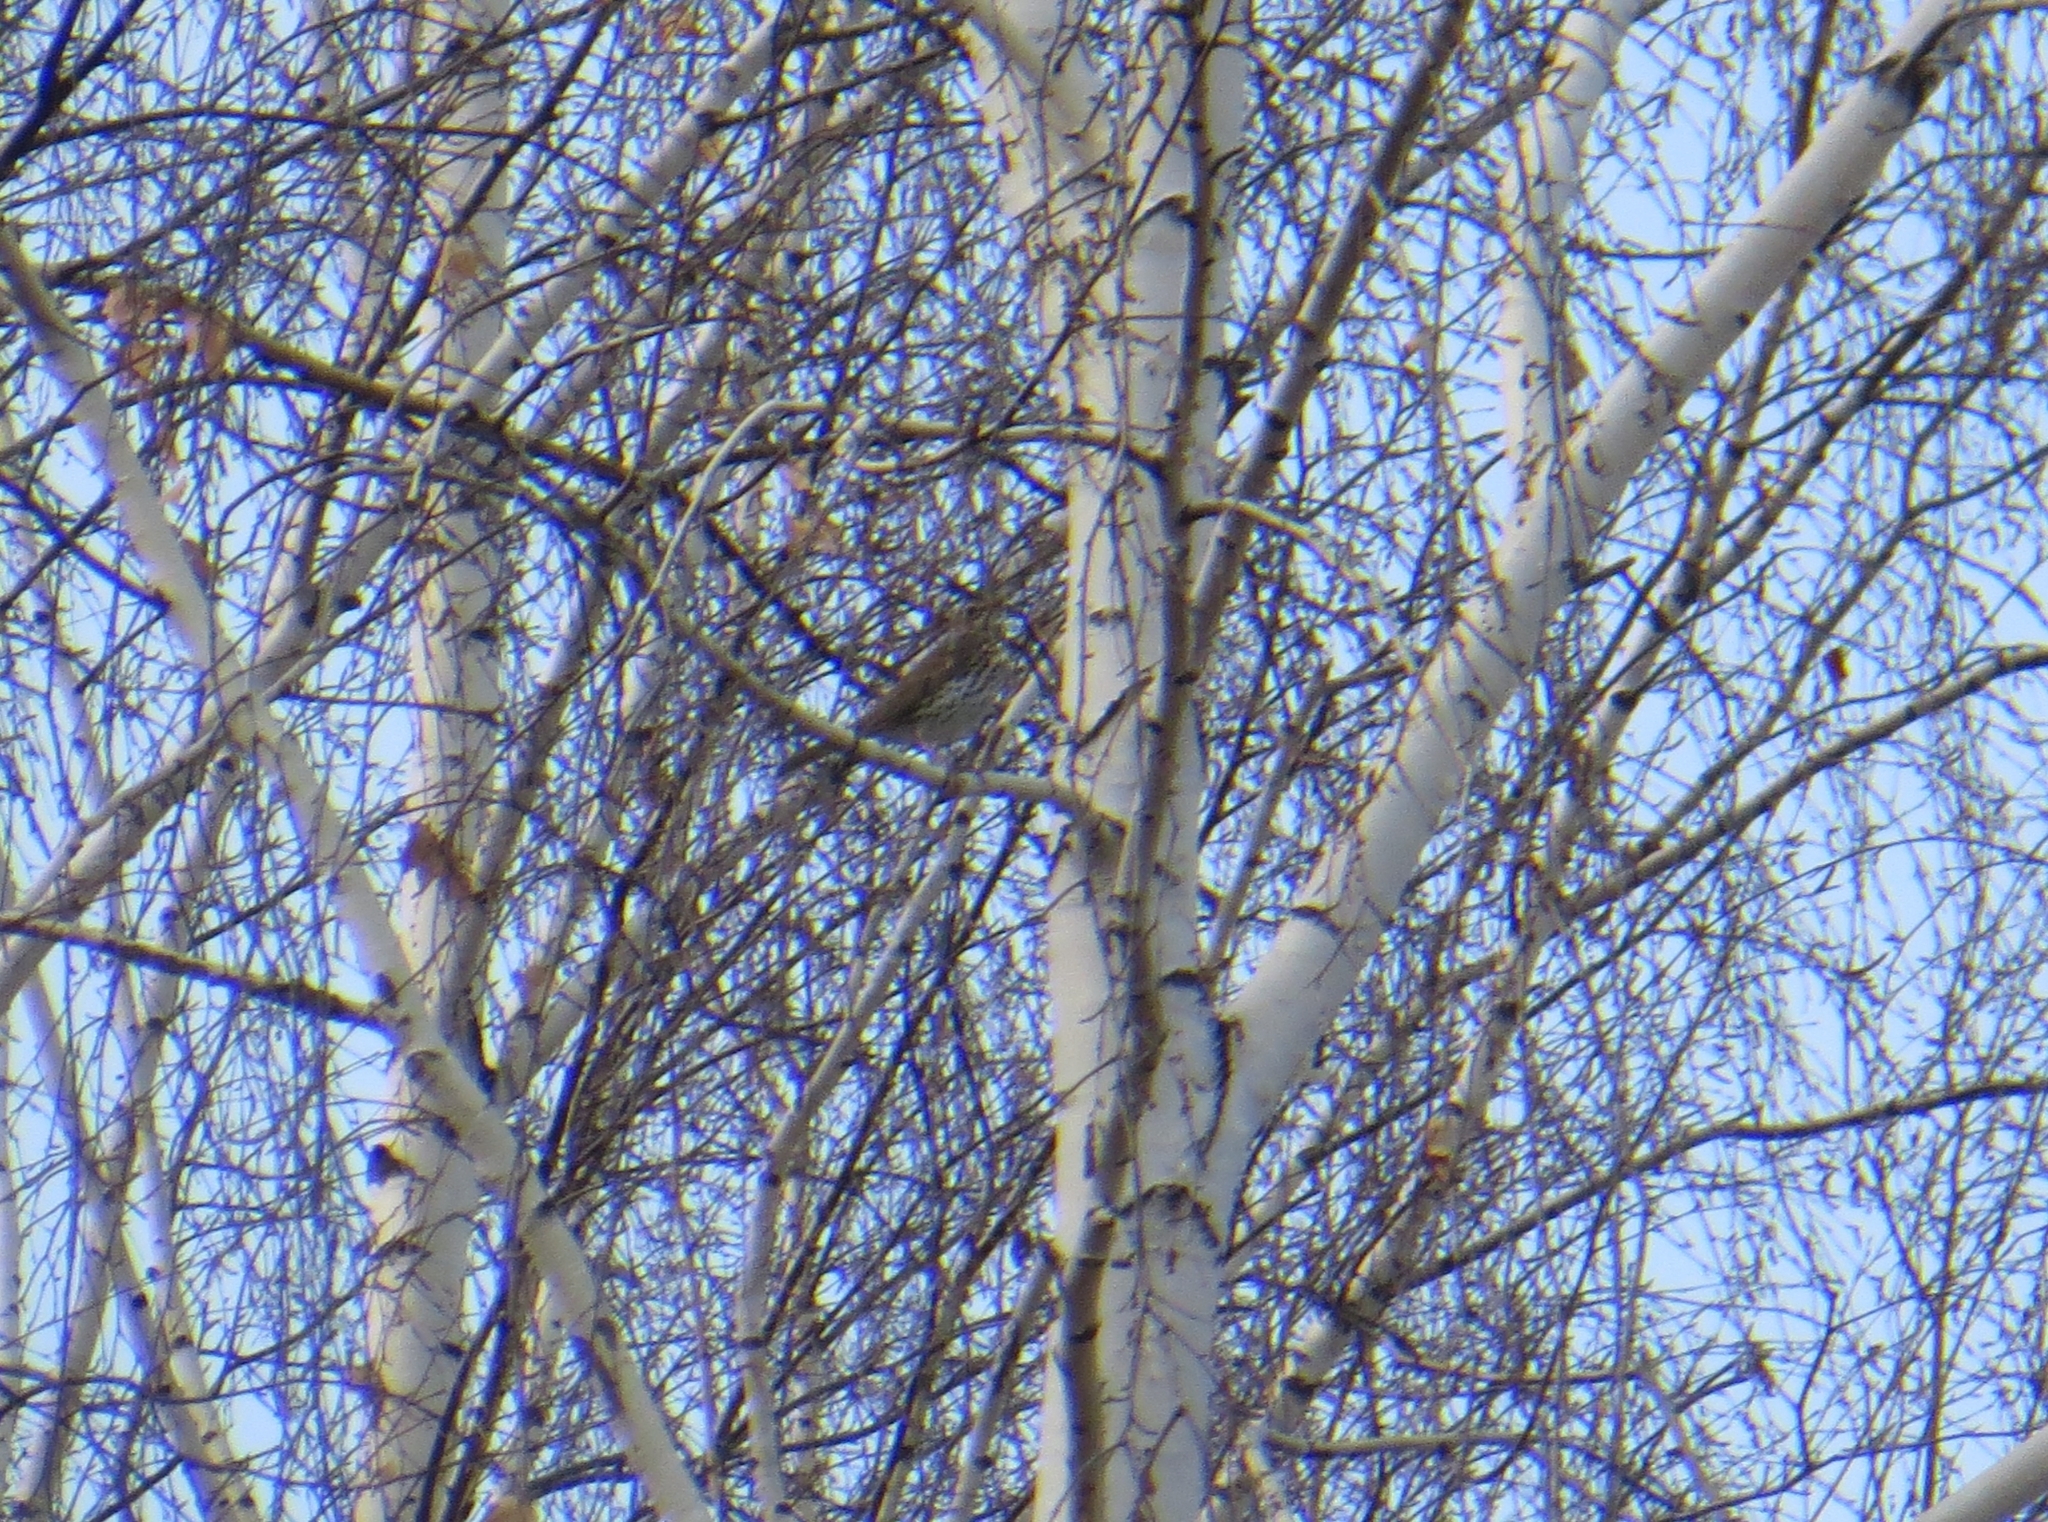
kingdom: Animalia
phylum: Chordata
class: Aves
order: Passeriformes
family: Turdidae
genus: Turdus
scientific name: Turdus philomelos
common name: Song thrush
